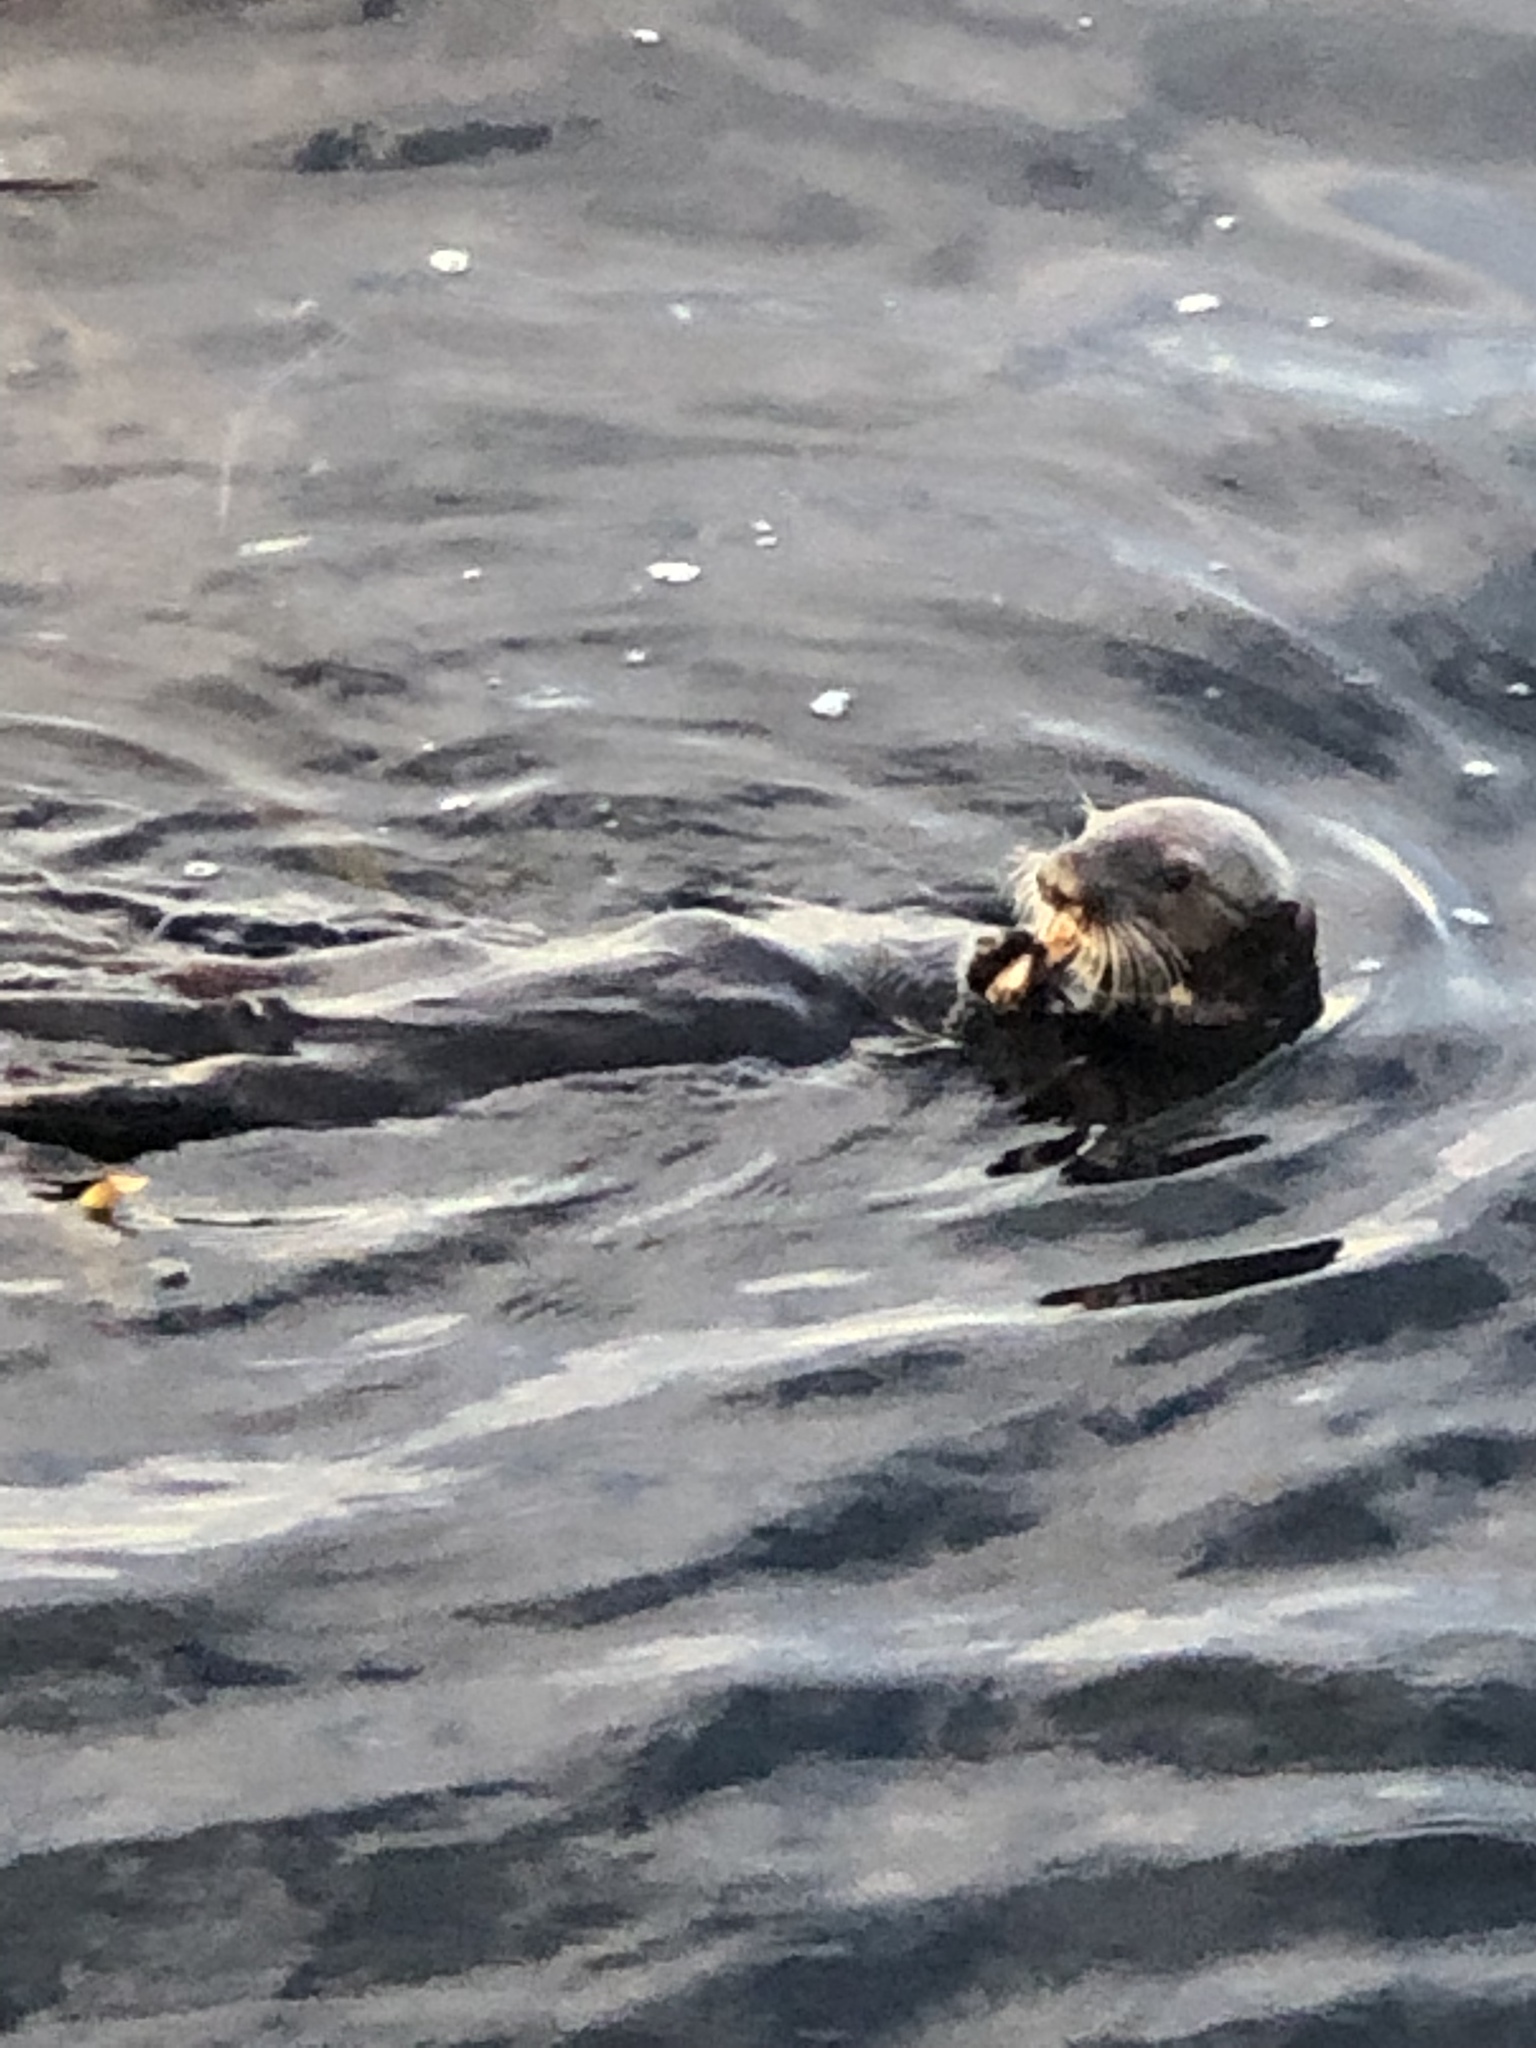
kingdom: Animalia
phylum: Chordata
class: Mammalia
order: Carnivora
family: Mustelidae
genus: Enhydra
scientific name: Enhydra lutris
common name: Sea otter
